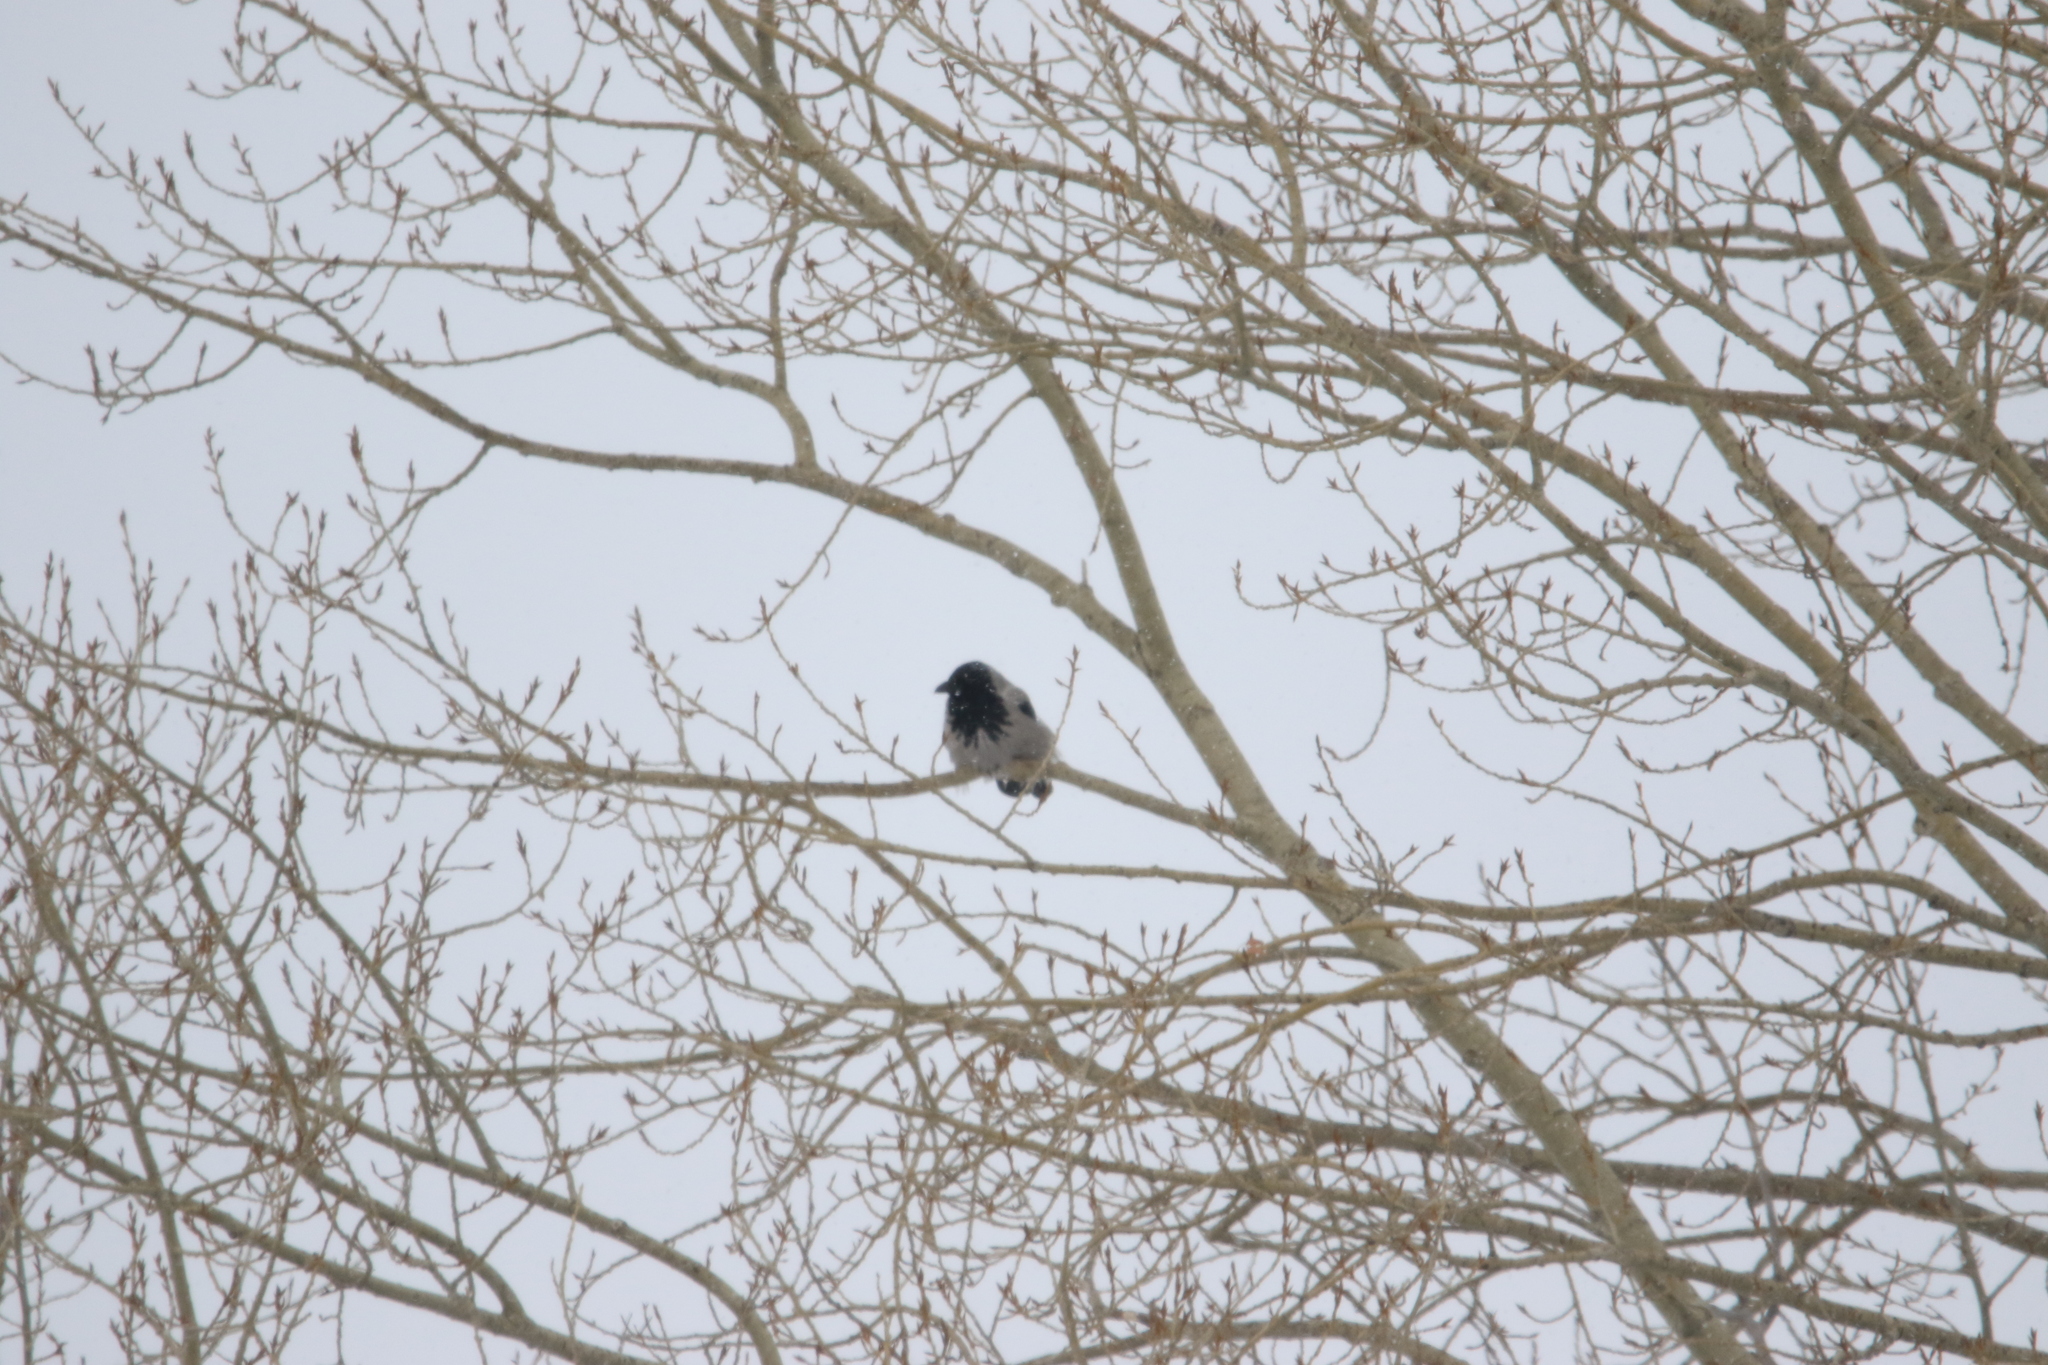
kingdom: Animalia
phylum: Chordata
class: Aves
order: Passeriformes
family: Corvidae
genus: Corvus
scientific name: Corvus cornix
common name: Hooded crow
